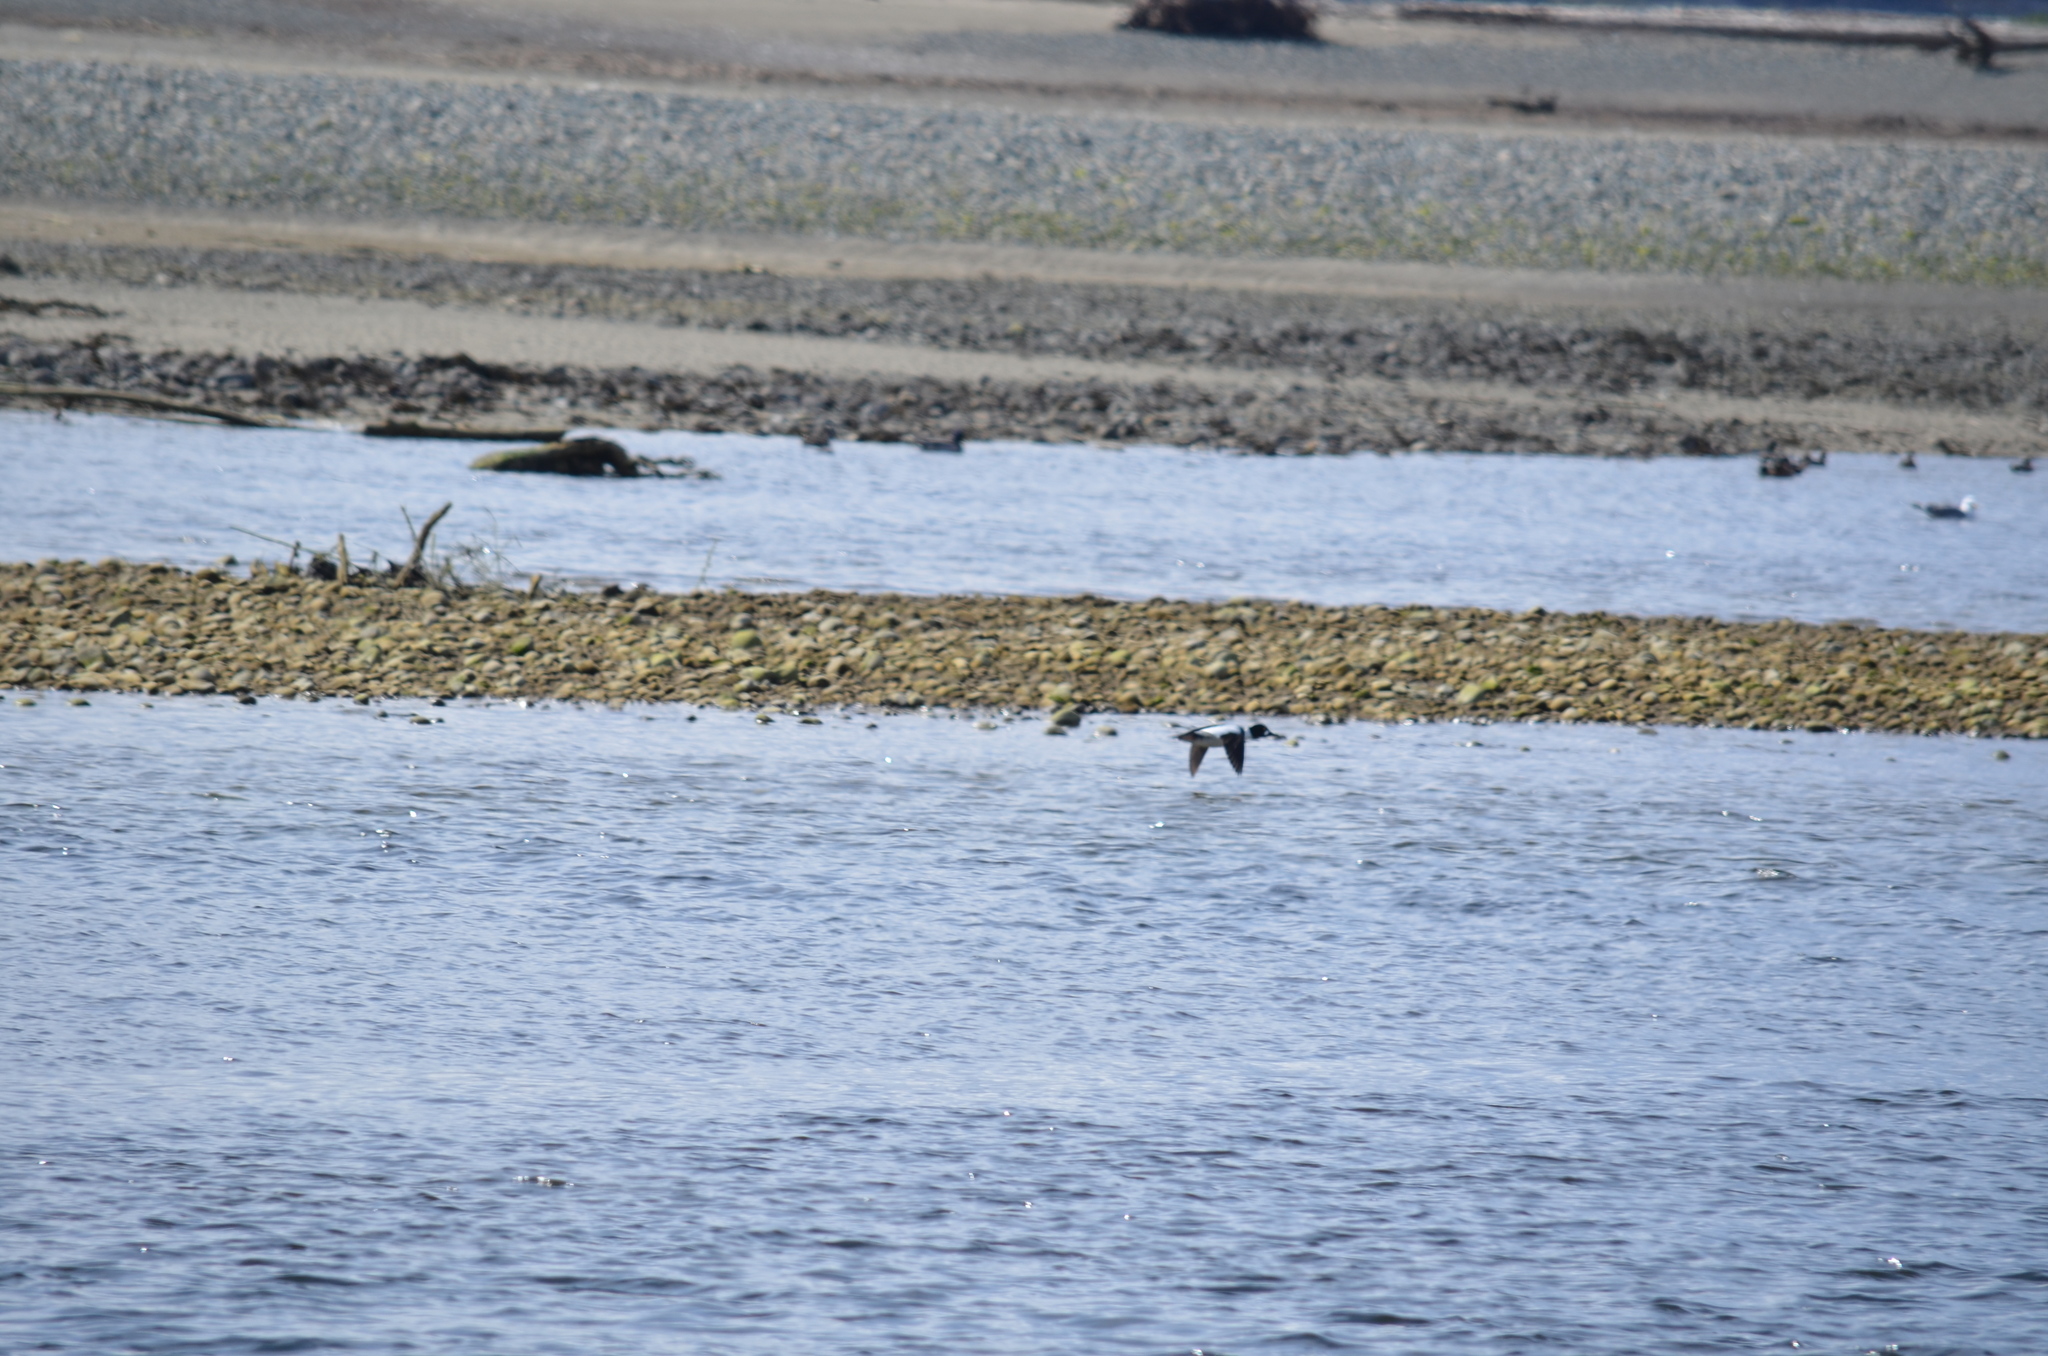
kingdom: Animalia
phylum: Chordata
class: Aves
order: Anseriformes
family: Anatidae
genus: Bucephala
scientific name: Bucephala clangula
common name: Common goldeneye
